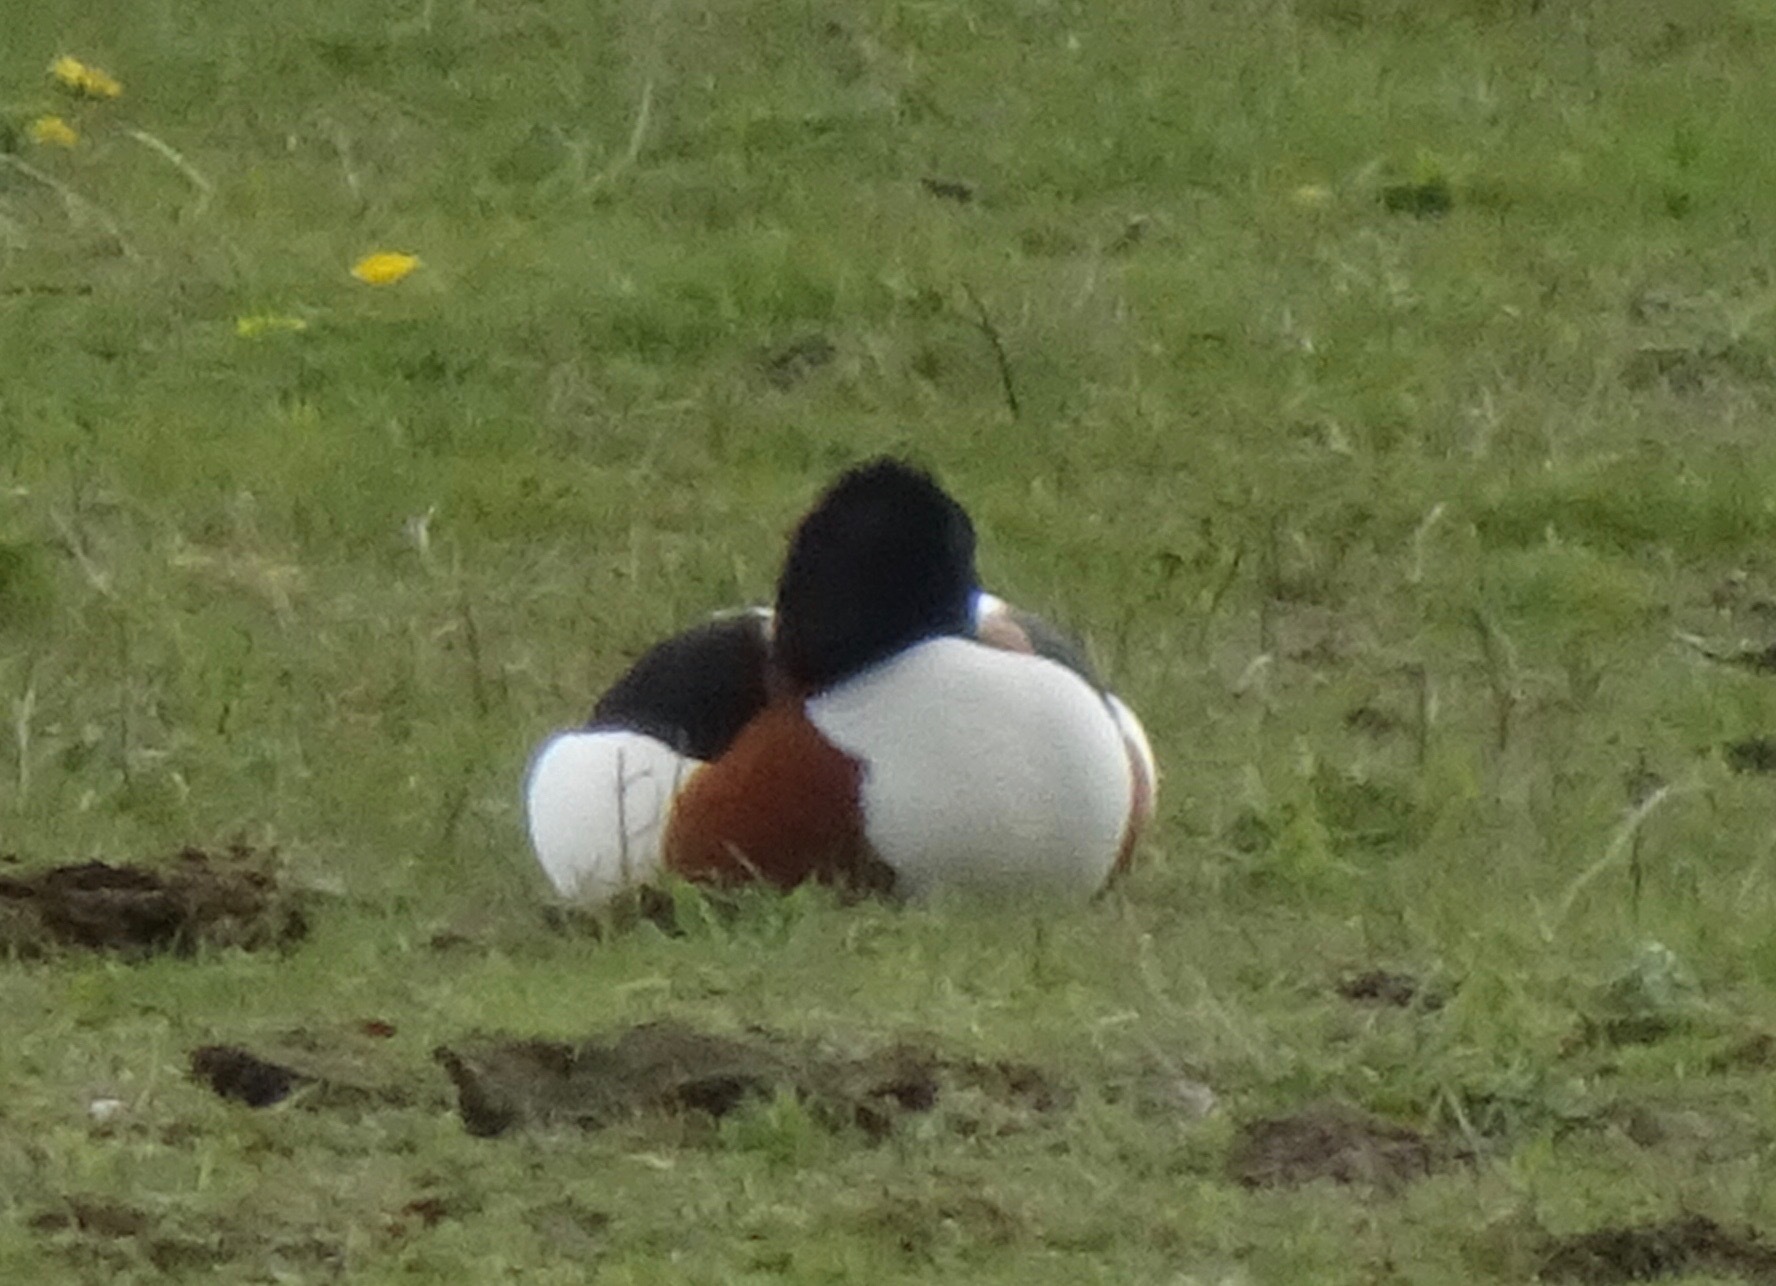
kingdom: Animalia
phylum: Chordata
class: Aves
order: Anseriformes
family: Anatidae
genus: Tadorna
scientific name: Tadorna tadorna
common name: Common shelduck
